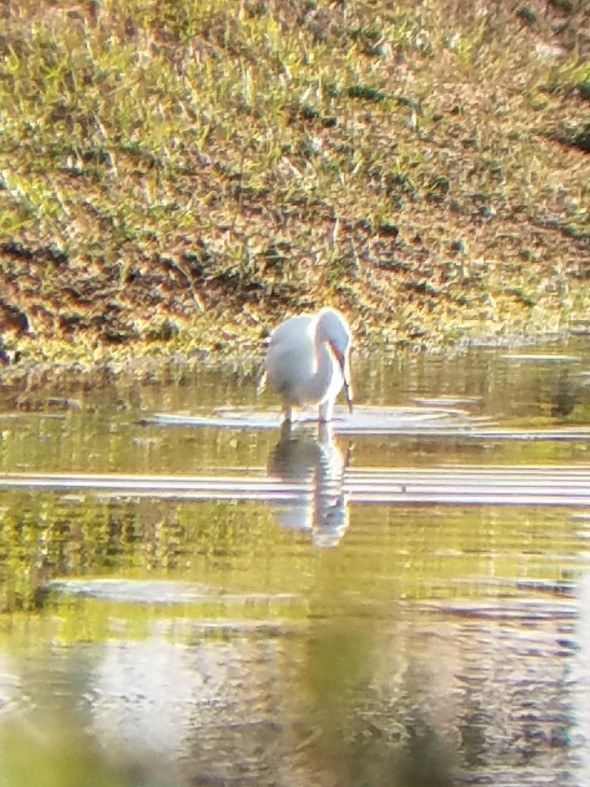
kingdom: Animalia
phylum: Chordata
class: Aves
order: Pelecaniformes
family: Ardeidae
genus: Egretta
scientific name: Egretta thula
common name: Snowy egret
